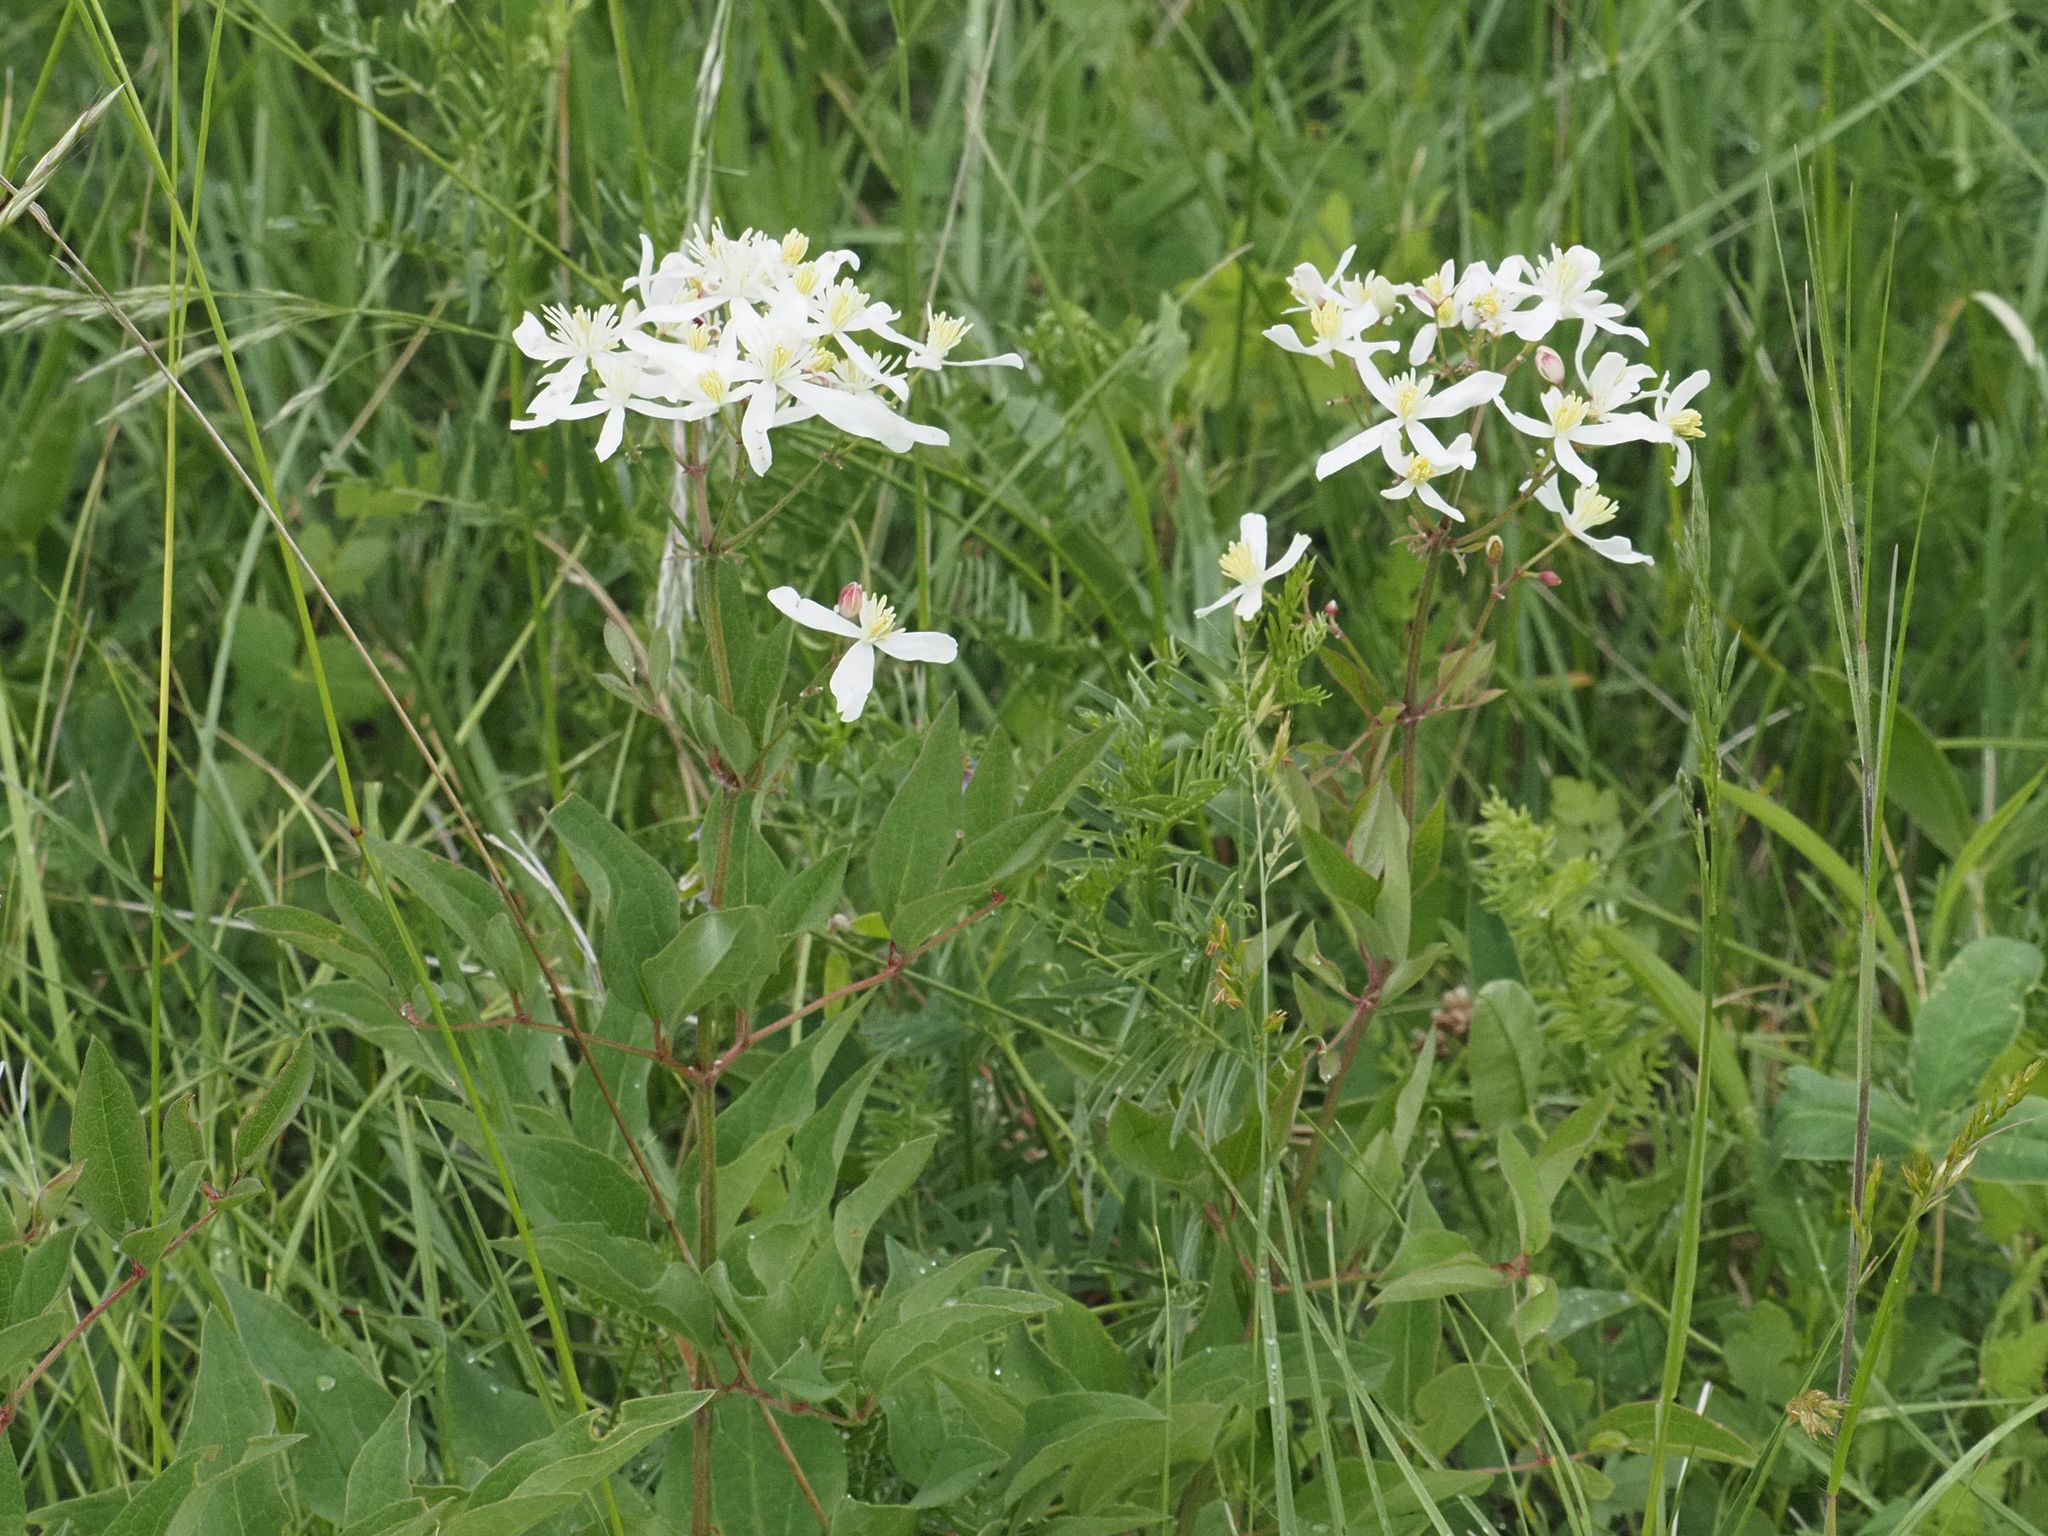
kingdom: Plantae
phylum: Tracheophyta
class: Magnoliopsida
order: Ranunculales
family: Ranunculaceae
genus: Clematis
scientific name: Clematis recta
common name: Ground clematis
